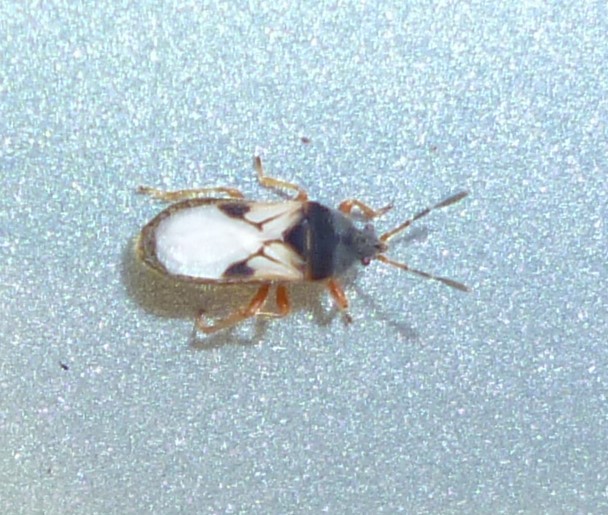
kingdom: Animalia
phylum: Arthropoda
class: Insecta
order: Hemiptera
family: Blissidae
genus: Blissus
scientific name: Blissus leucopterus
